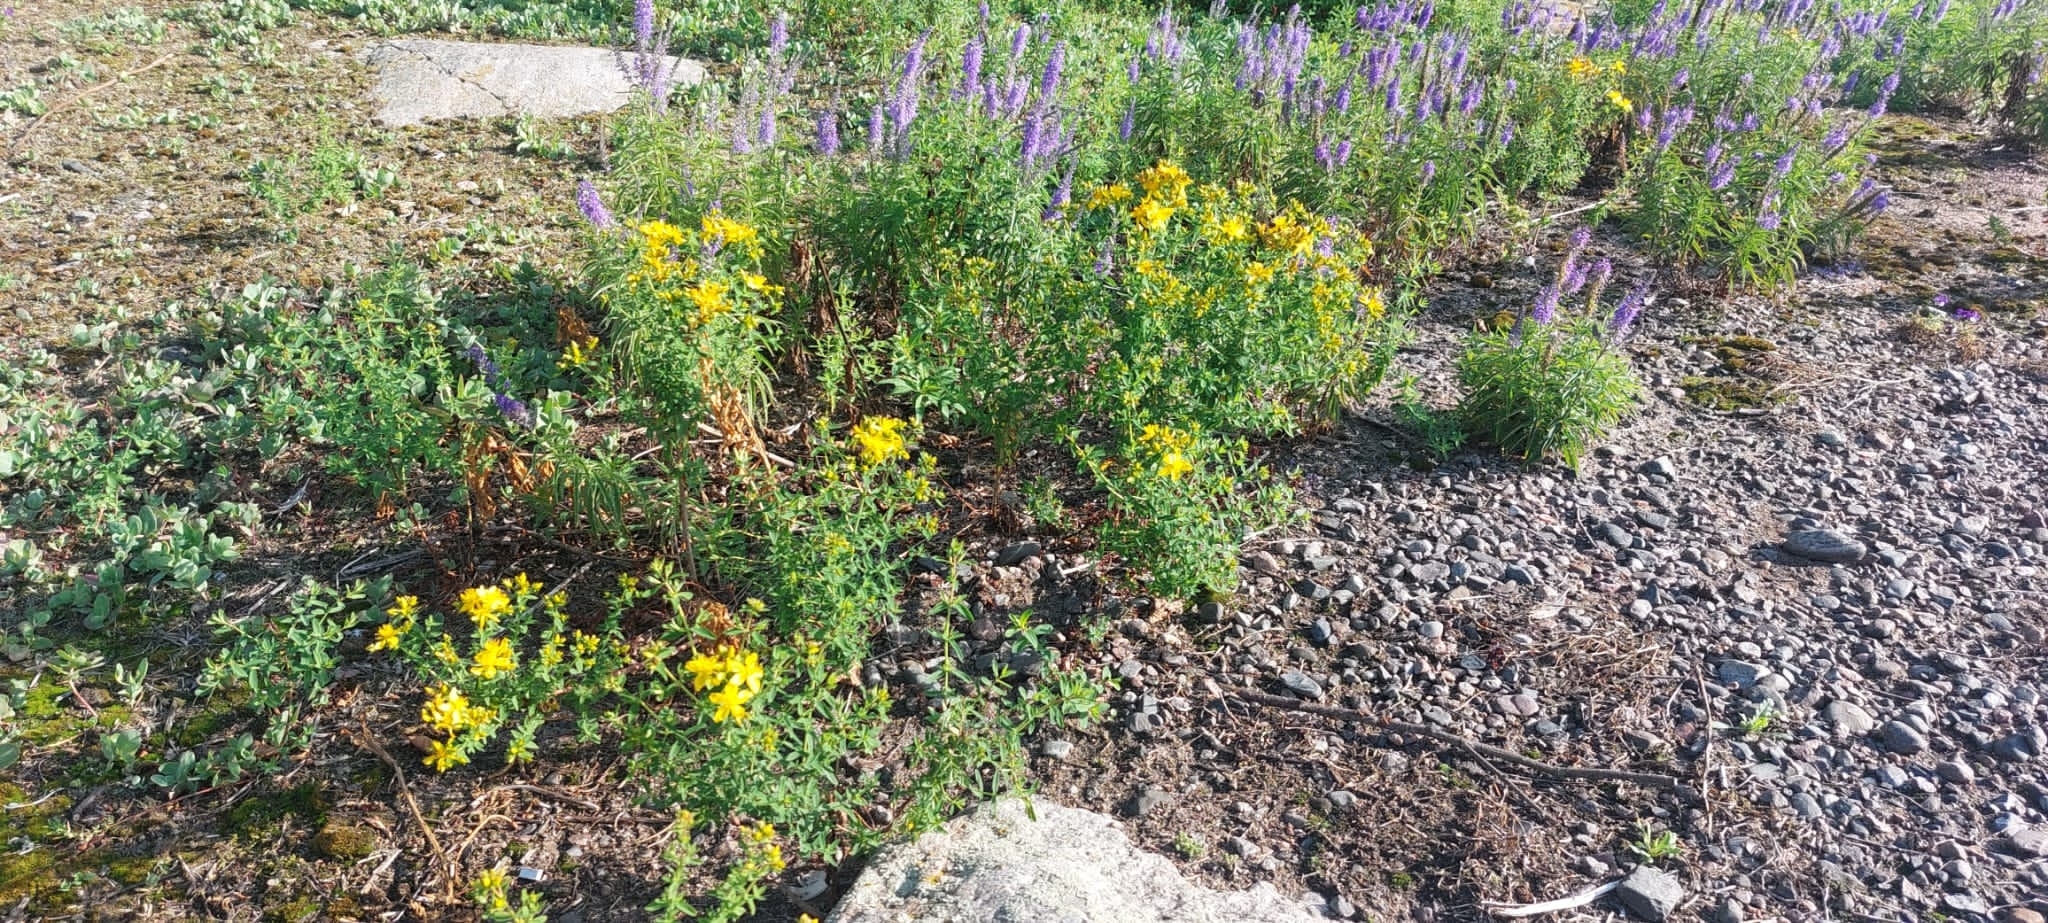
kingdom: Plantae
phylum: Tracheophyta
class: Magnoliopsida
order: Malpighiales
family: Hypericaceae
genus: Hypericum
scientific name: Hypericum perforatum
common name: Common st. johnswort
